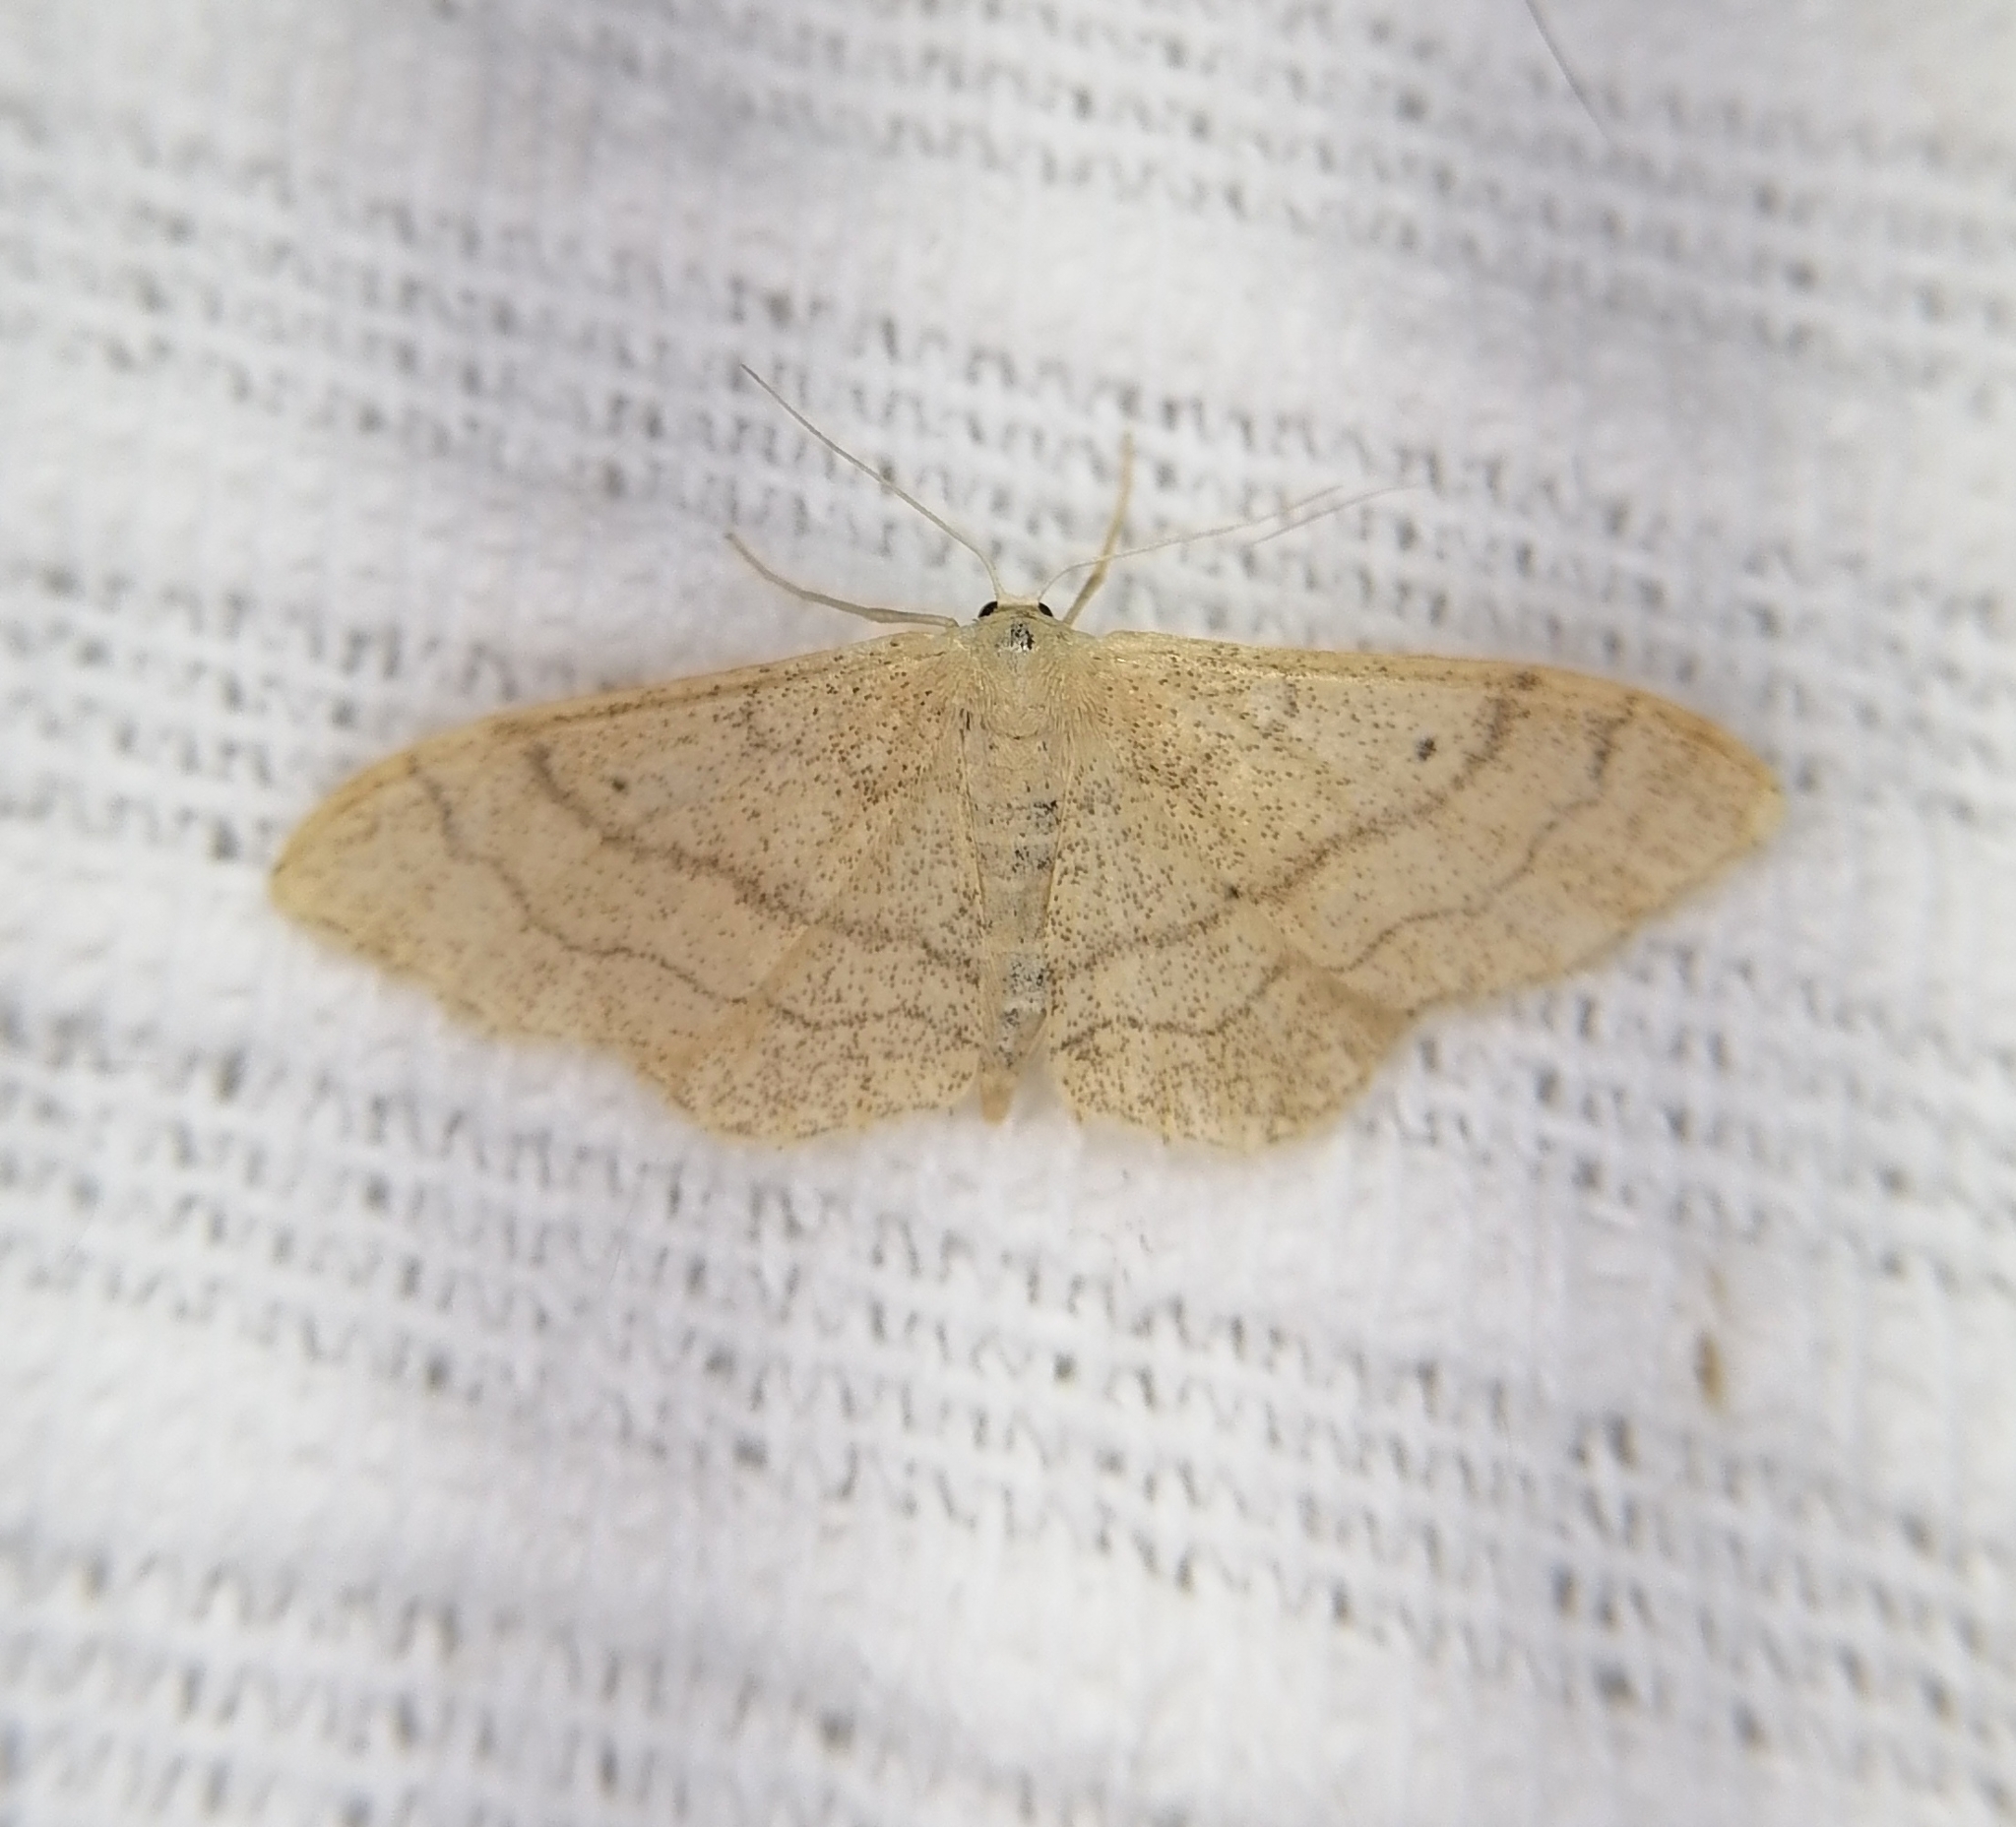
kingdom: Animalia
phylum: Arthropoda
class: Insecta
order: Lepidoptera
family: Geometridae
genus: Idaea
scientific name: Idaea aversata
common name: Riband wave
